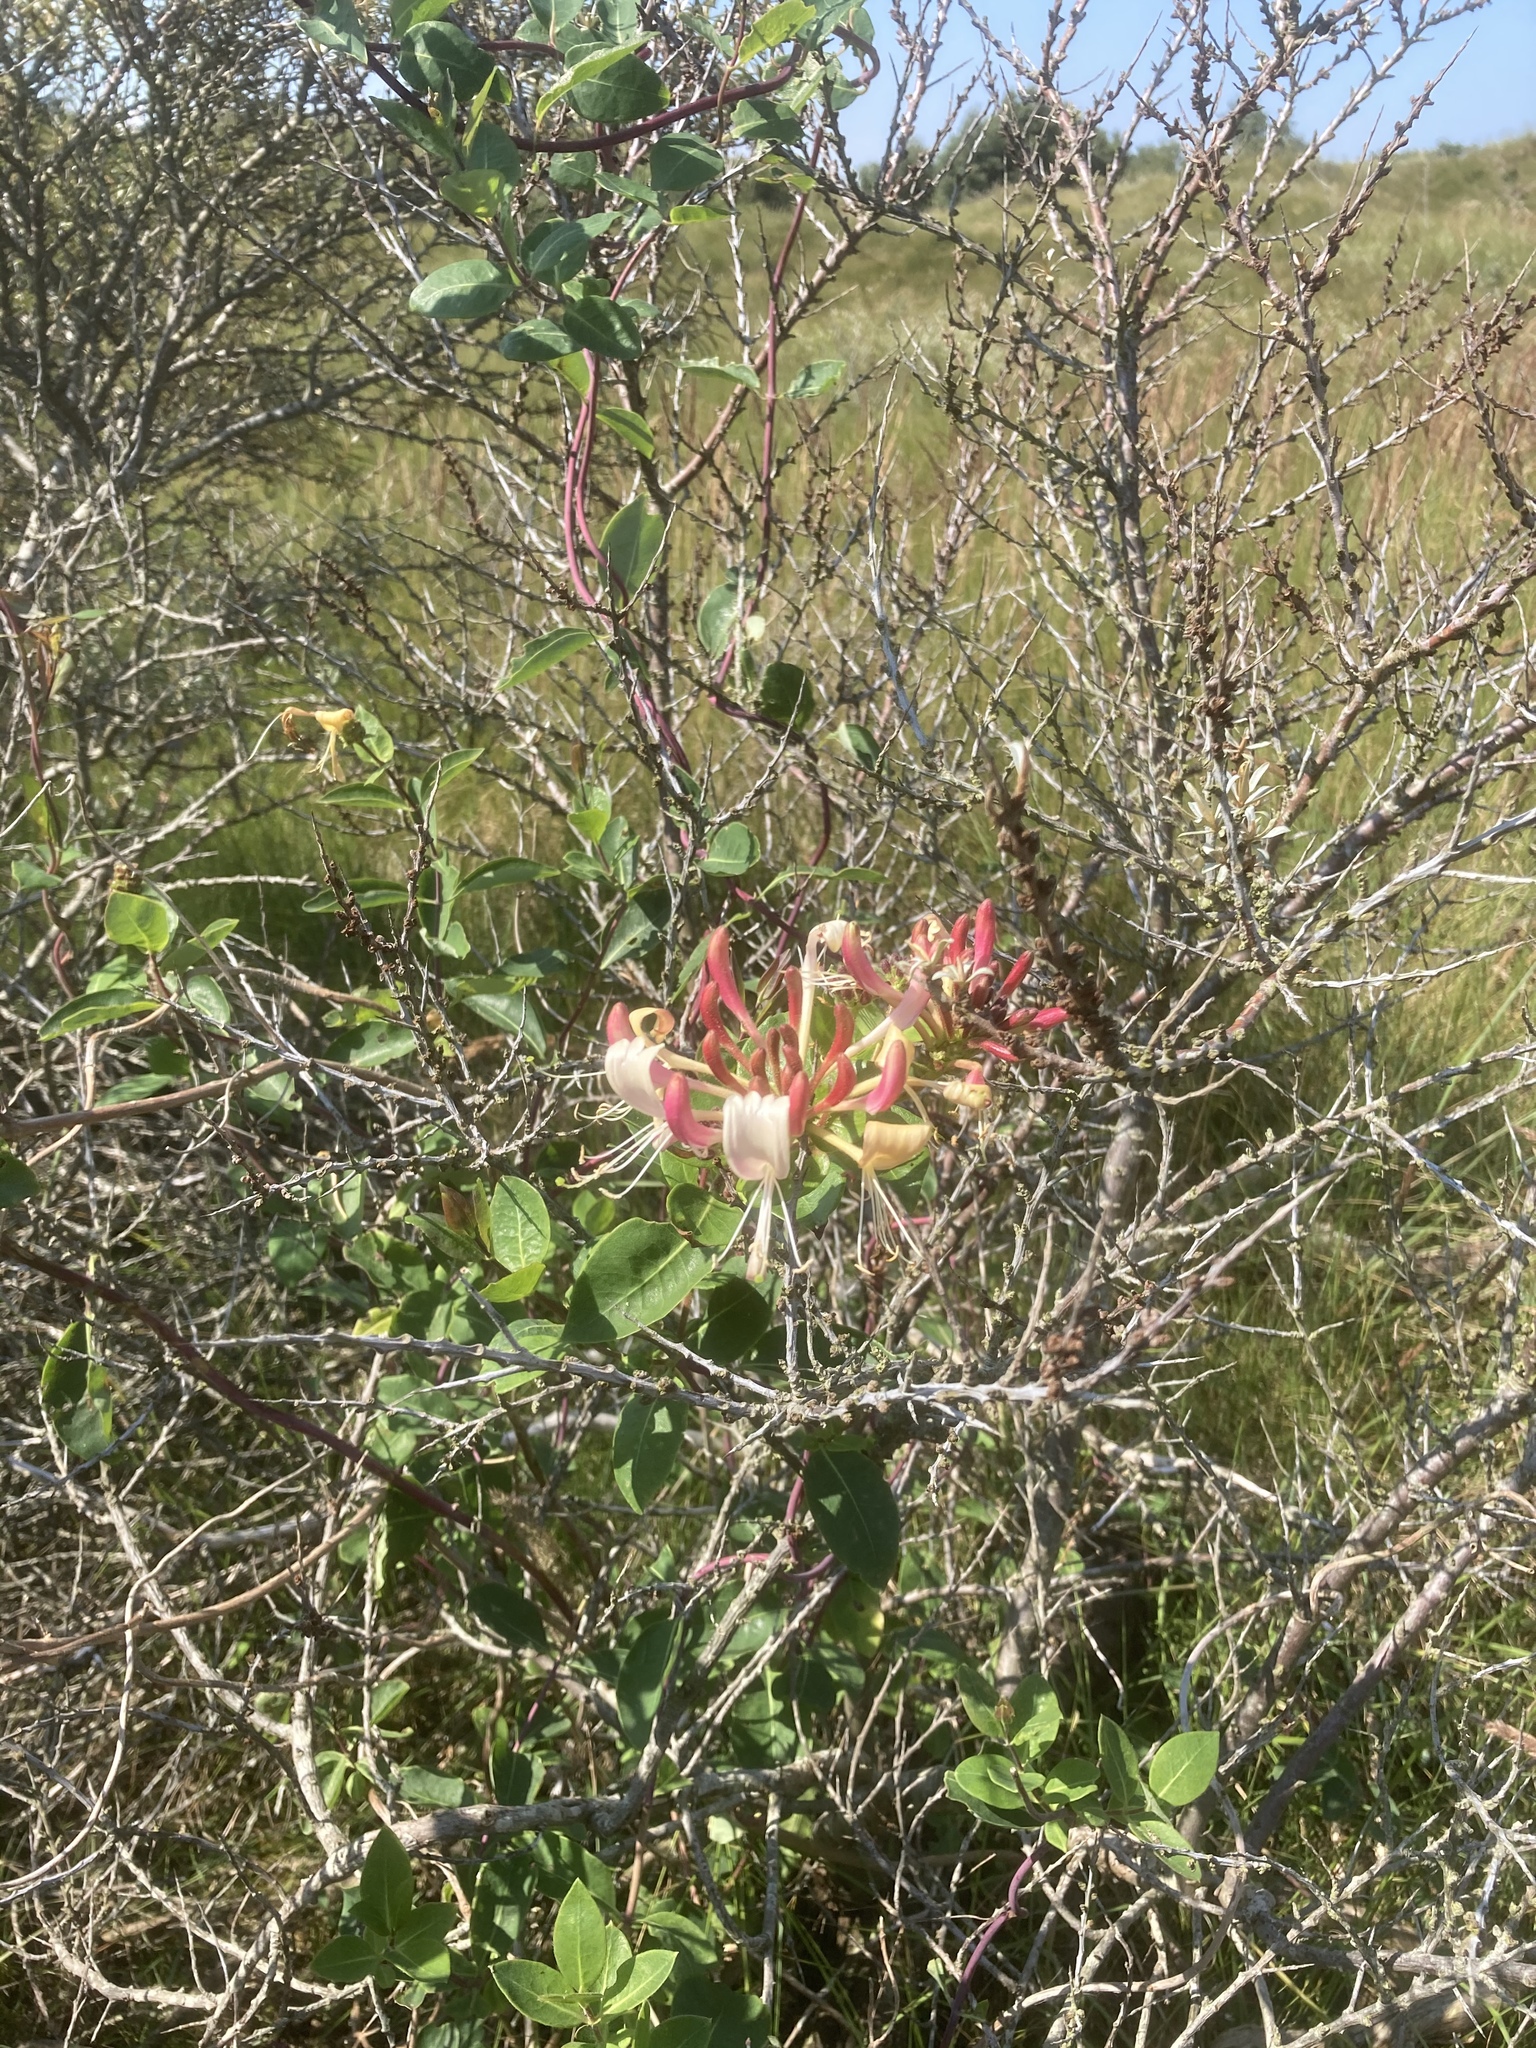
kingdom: Plantae
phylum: Tracheophyta
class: Magnoliopsida
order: Dipsacales
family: Caprifoliaceae
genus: Lonicera
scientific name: Lonicera periclymenum
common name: European honeysuckle
